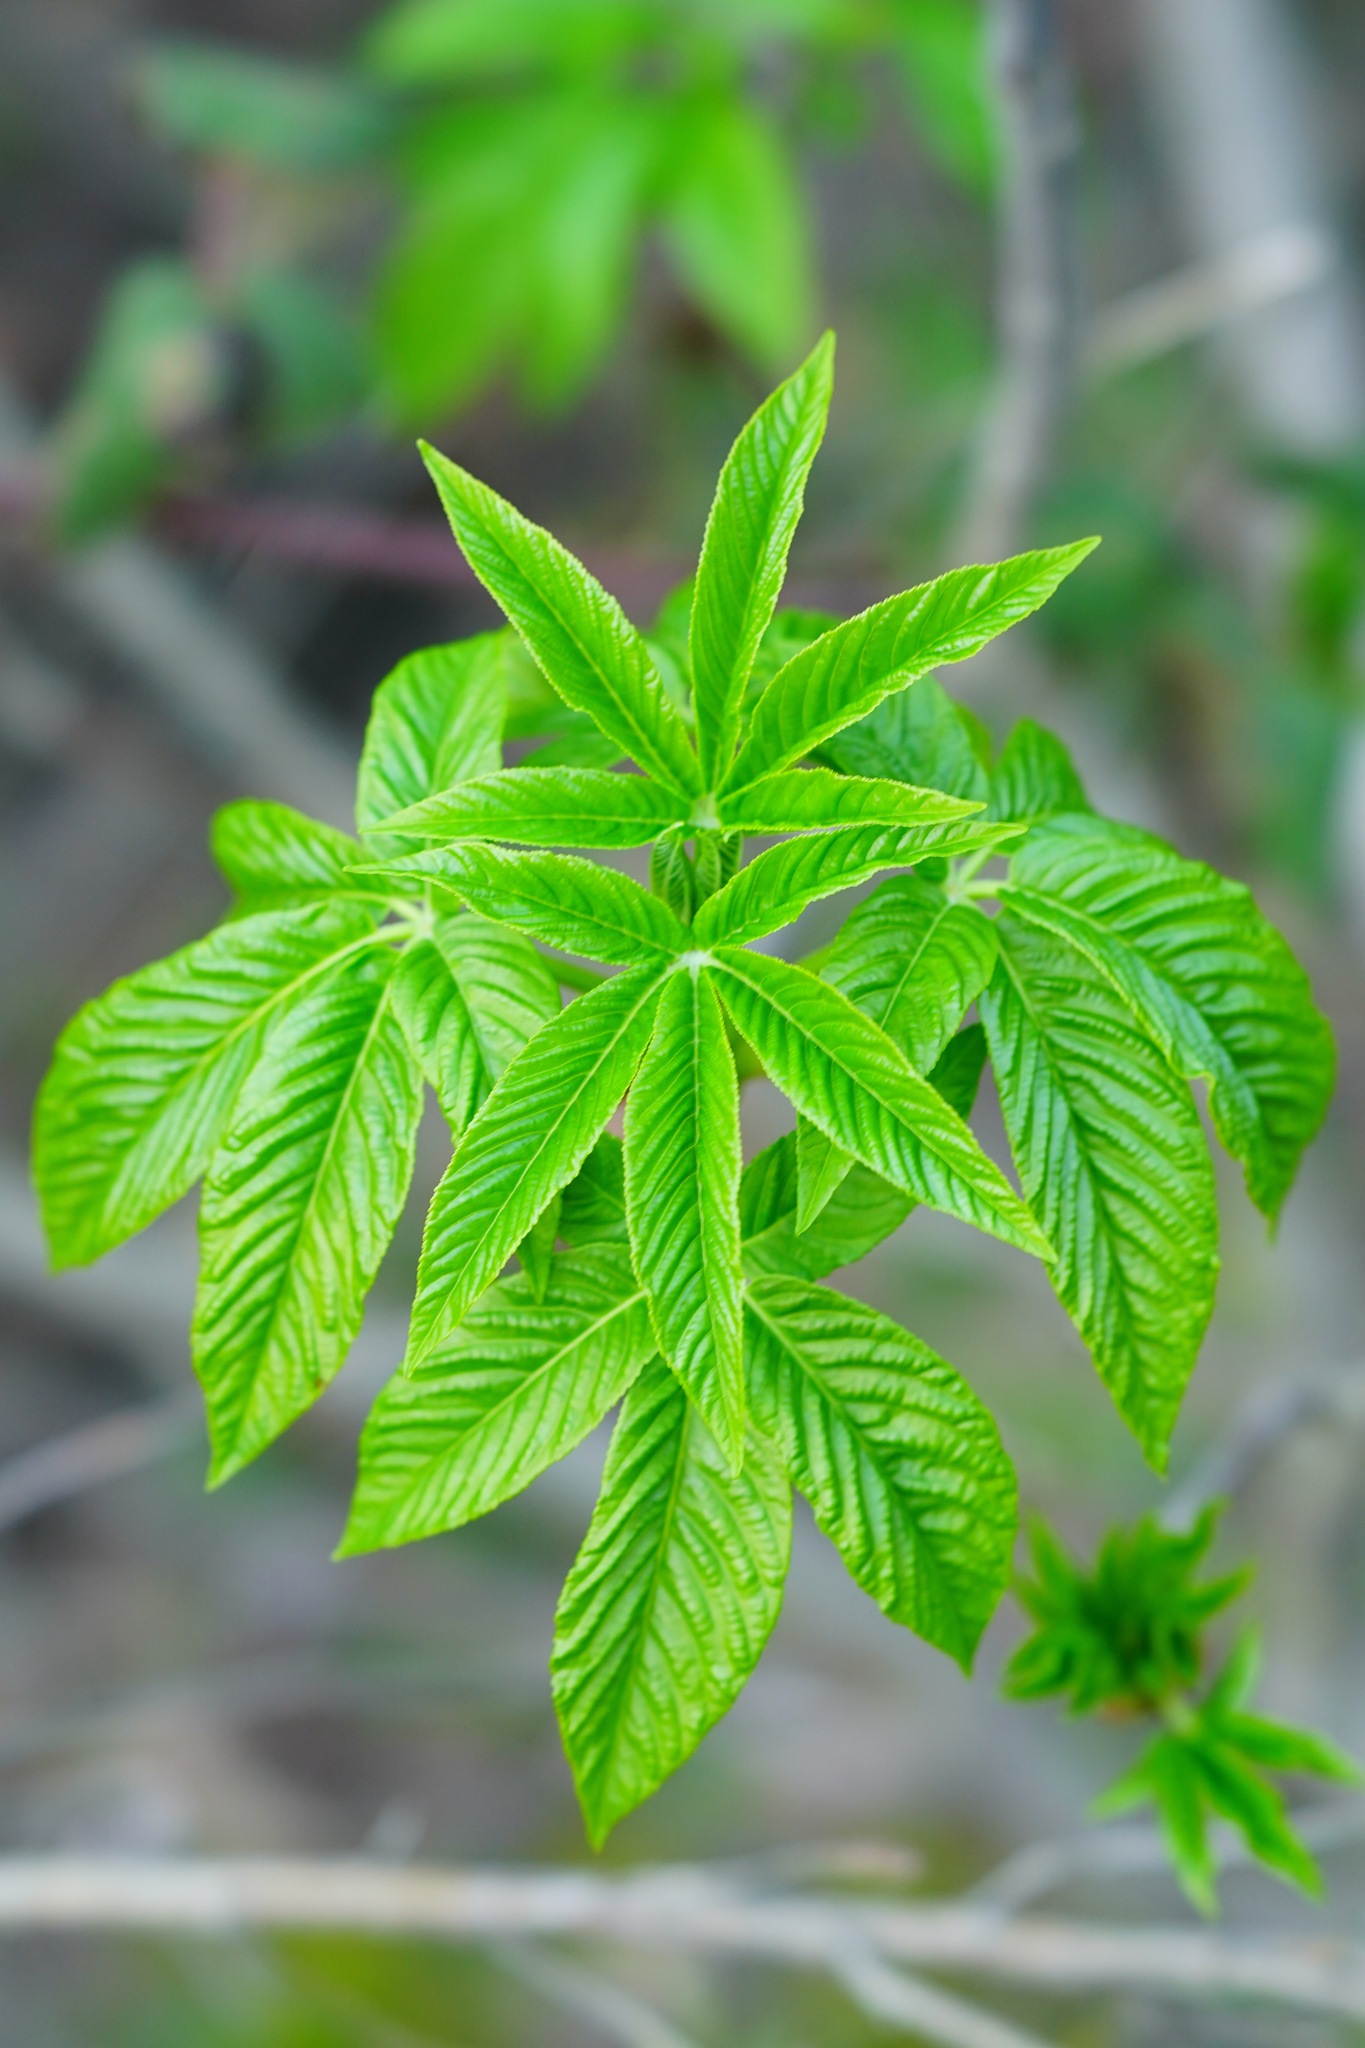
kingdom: Plantae
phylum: Tracheophyta
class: Magnoliopsida
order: Sapindales
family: Sapindaceae
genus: Aesculus
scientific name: Aesculus californica
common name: California buckeye
